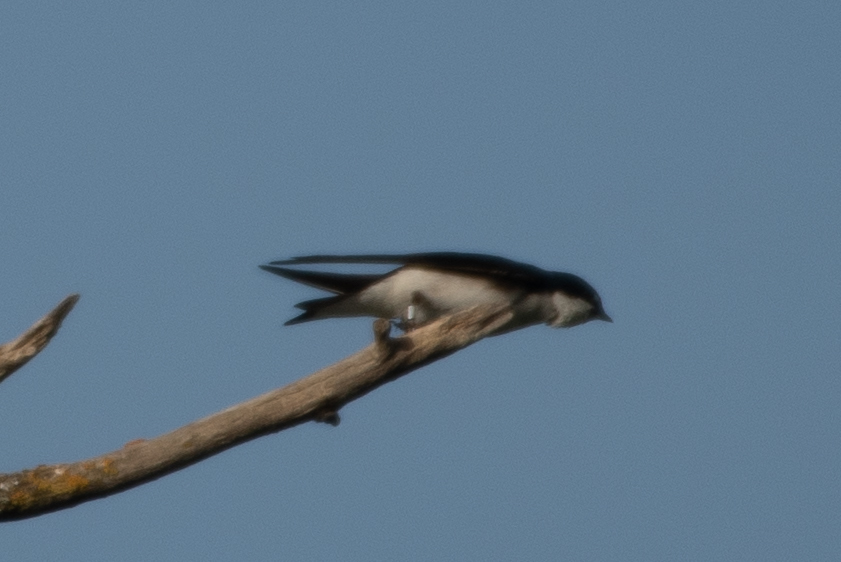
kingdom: Animalia
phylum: Chordata
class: Aves
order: Passeriformes
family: Hirundinidae
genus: Tachycineta
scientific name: Tachycineta bicolor
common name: Tree swallow
